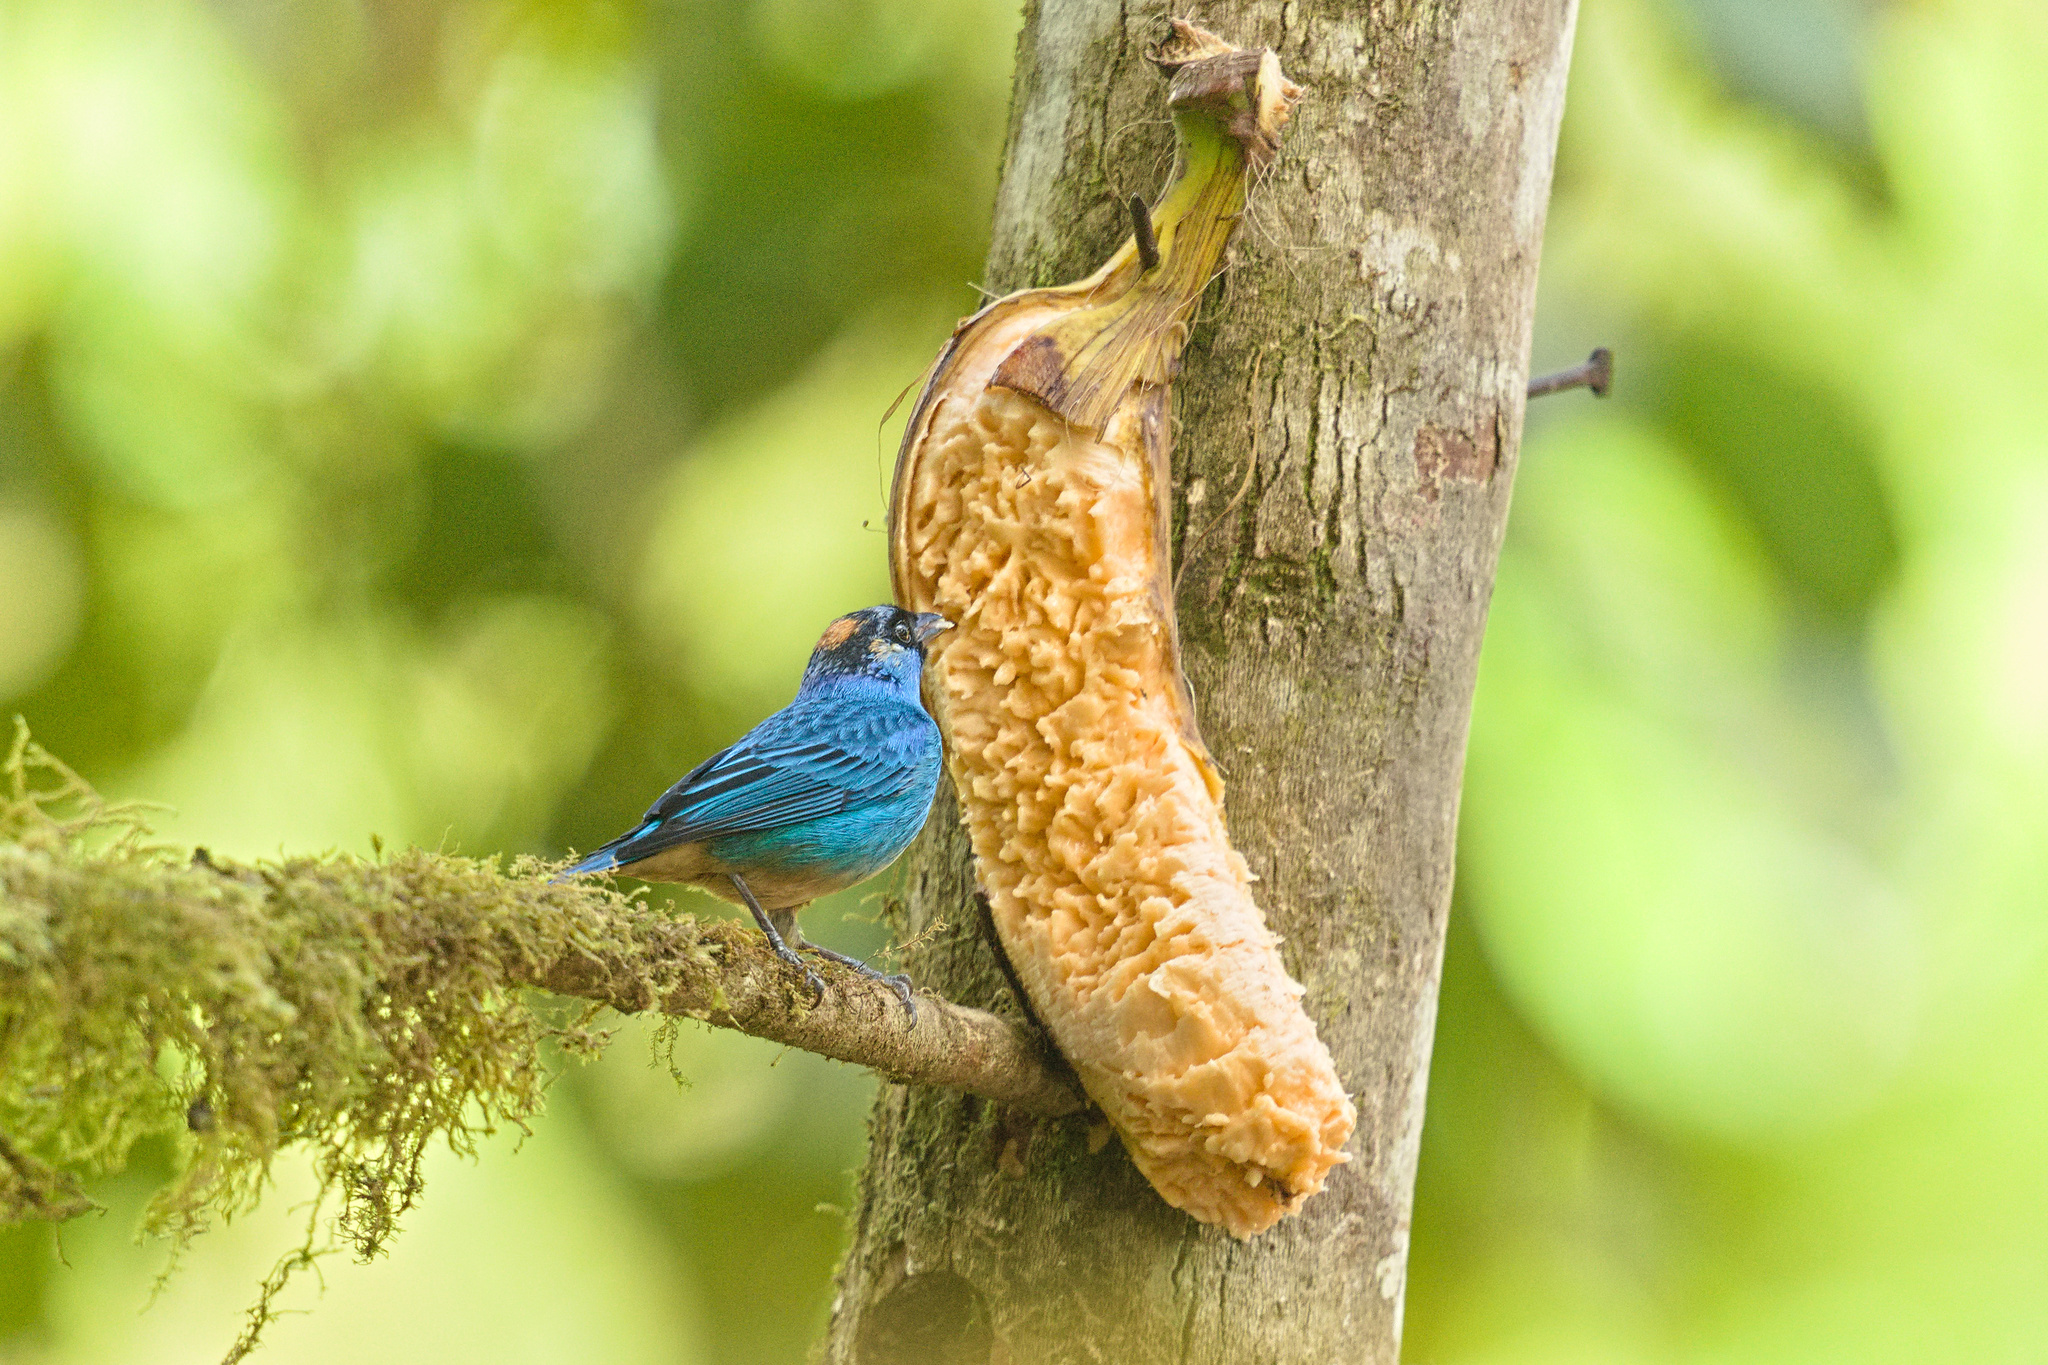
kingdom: Animalia
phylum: Chordata
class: Aves
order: Passeriformes
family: Thraupidae
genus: Chalcothraupis
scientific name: Chalcothraupis ruficervix
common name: Golden-naped tanager
